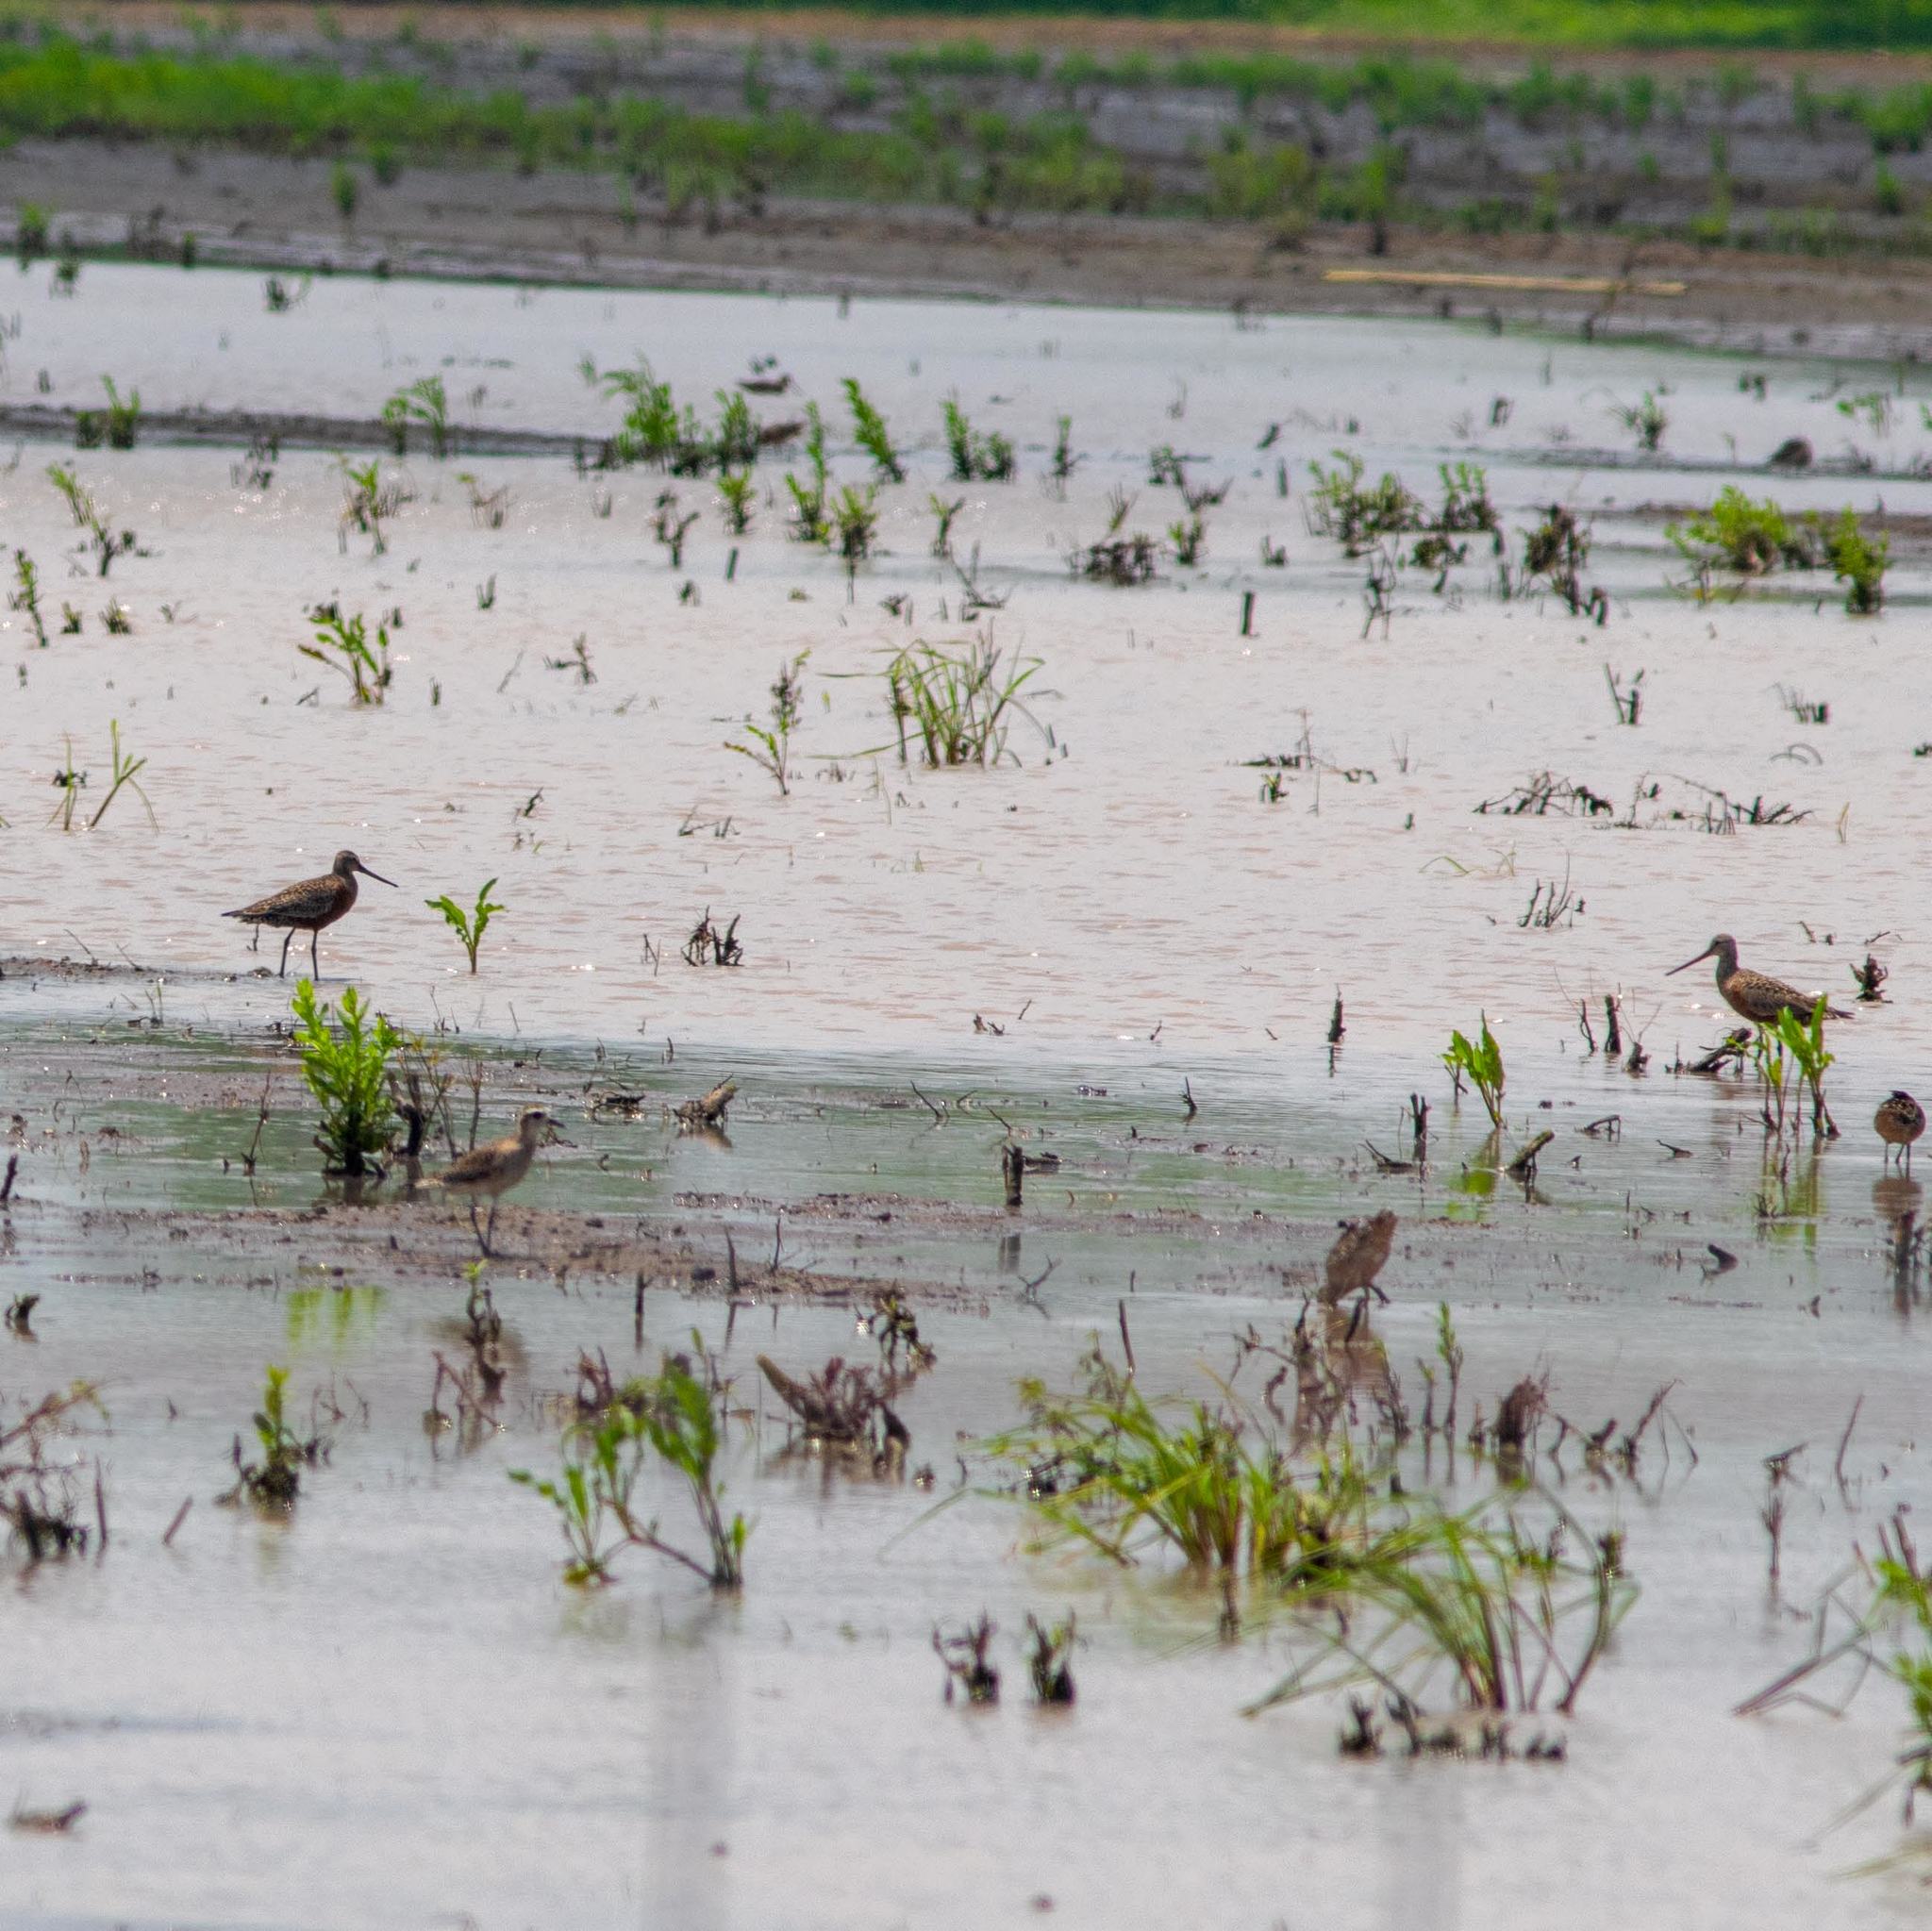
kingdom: Animalia
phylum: Chordata
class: Aves
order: Charadriiformes
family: Scolopacidae
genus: Limosa
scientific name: Limosa haemastica
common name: Hudsonian godwit
